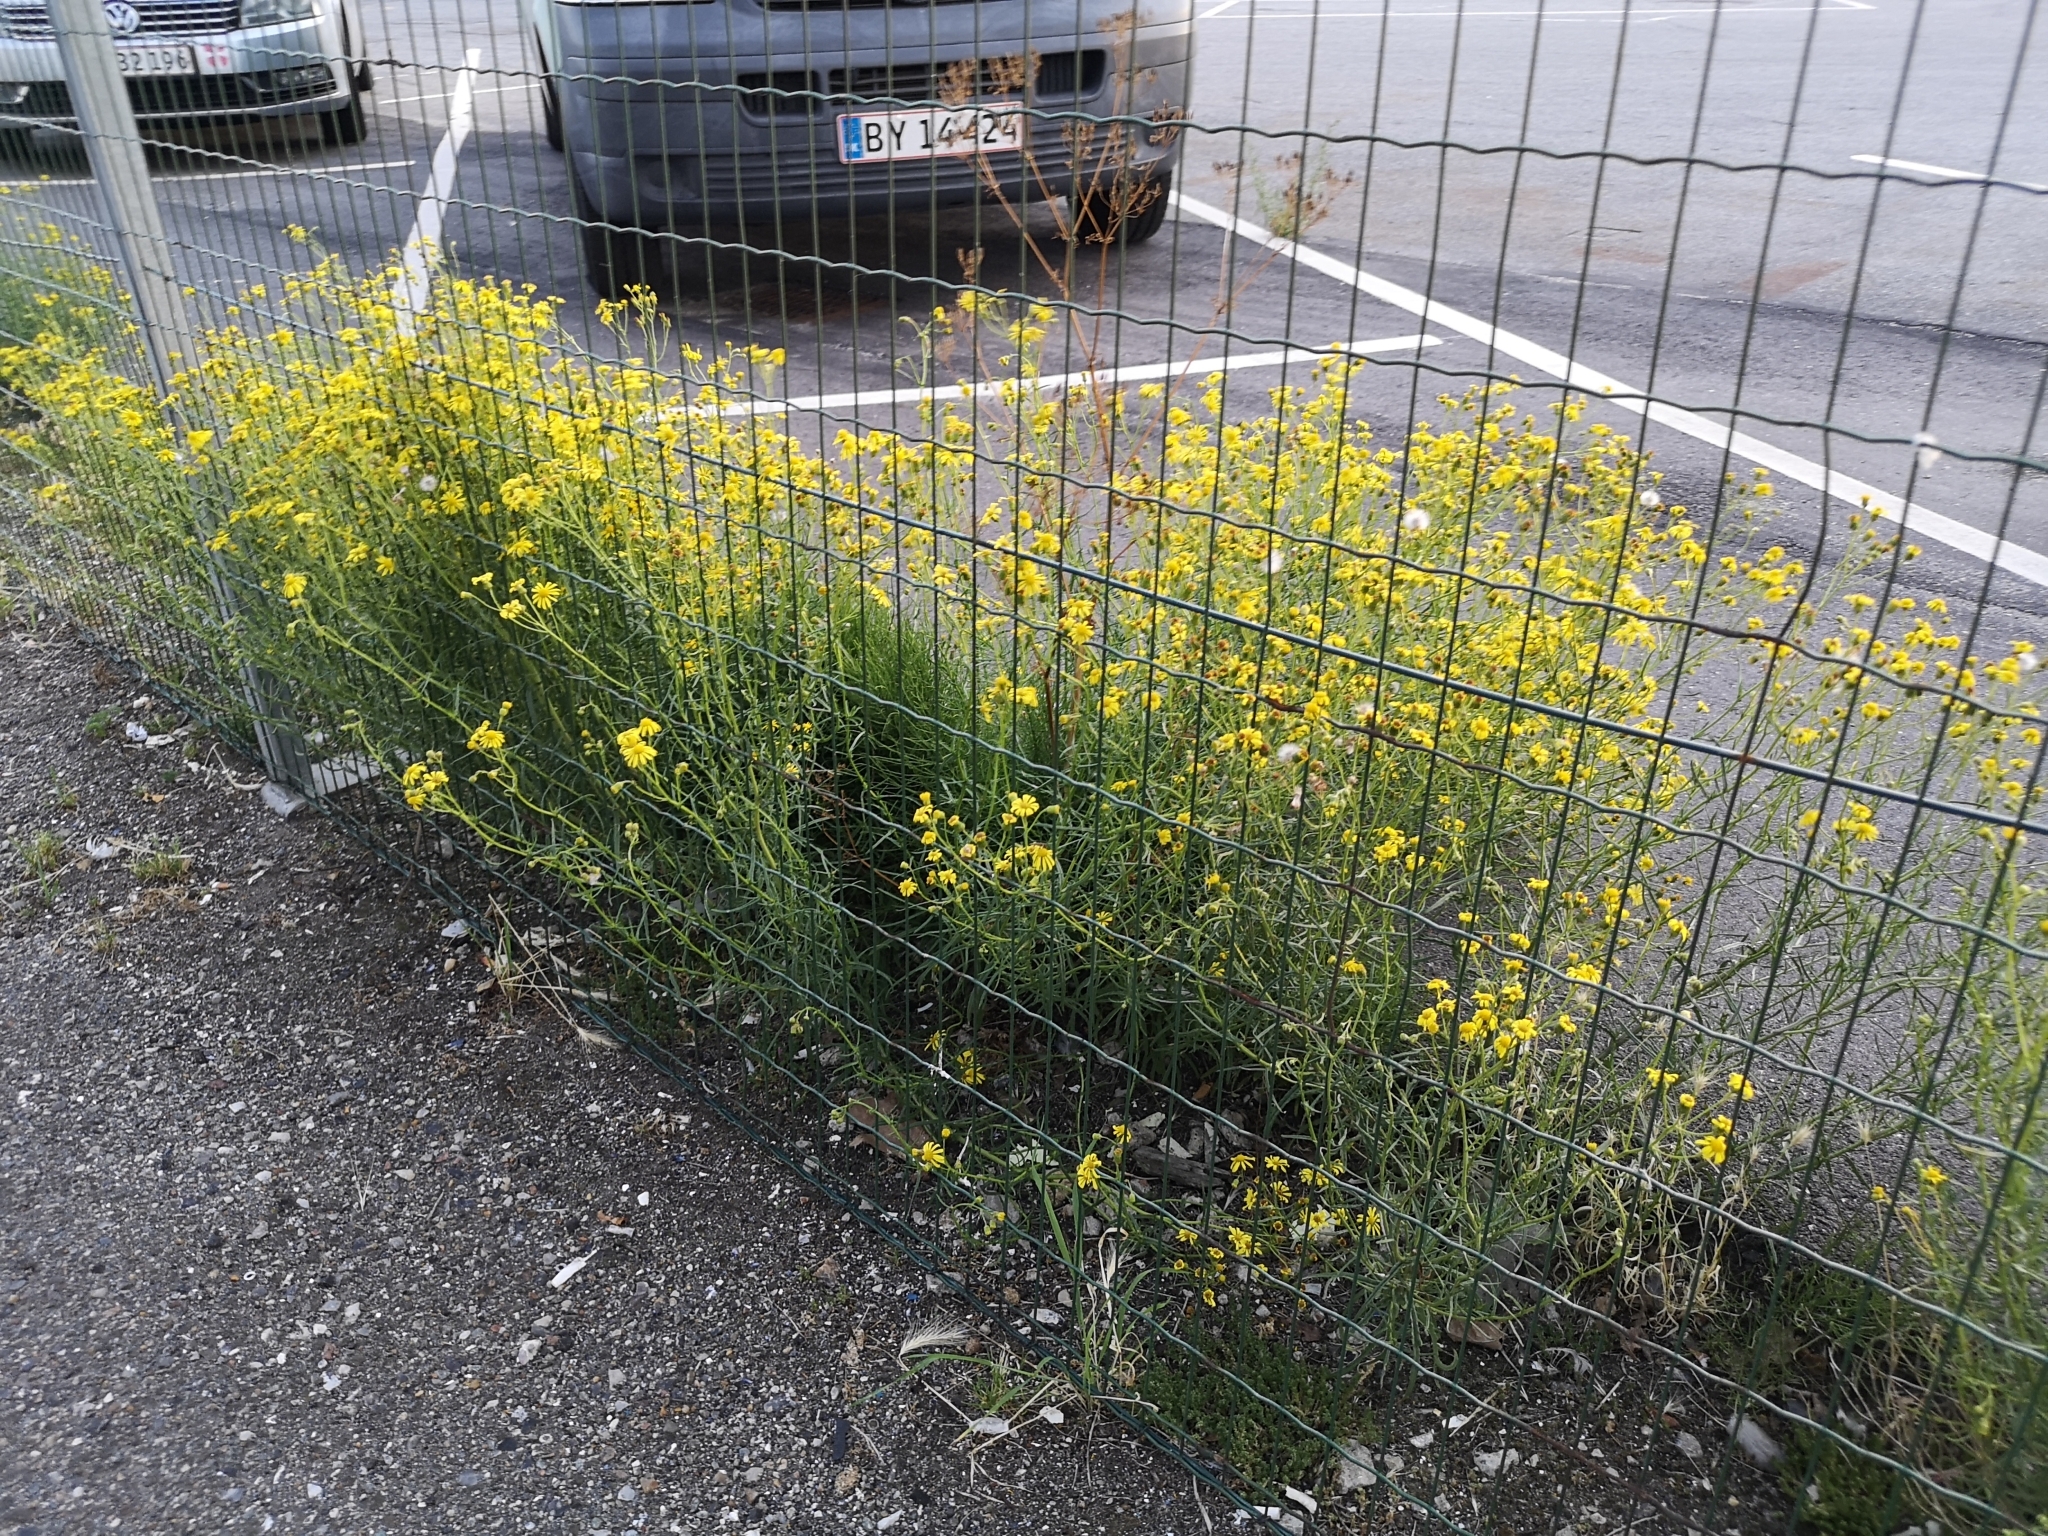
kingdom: Plantae
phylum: Tracheophyta
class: Magnoliopsida
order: Asterales
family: Asteraceae
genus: Senecio
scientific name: Senecio inaequidens
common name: Narrow-leaved ragwort
